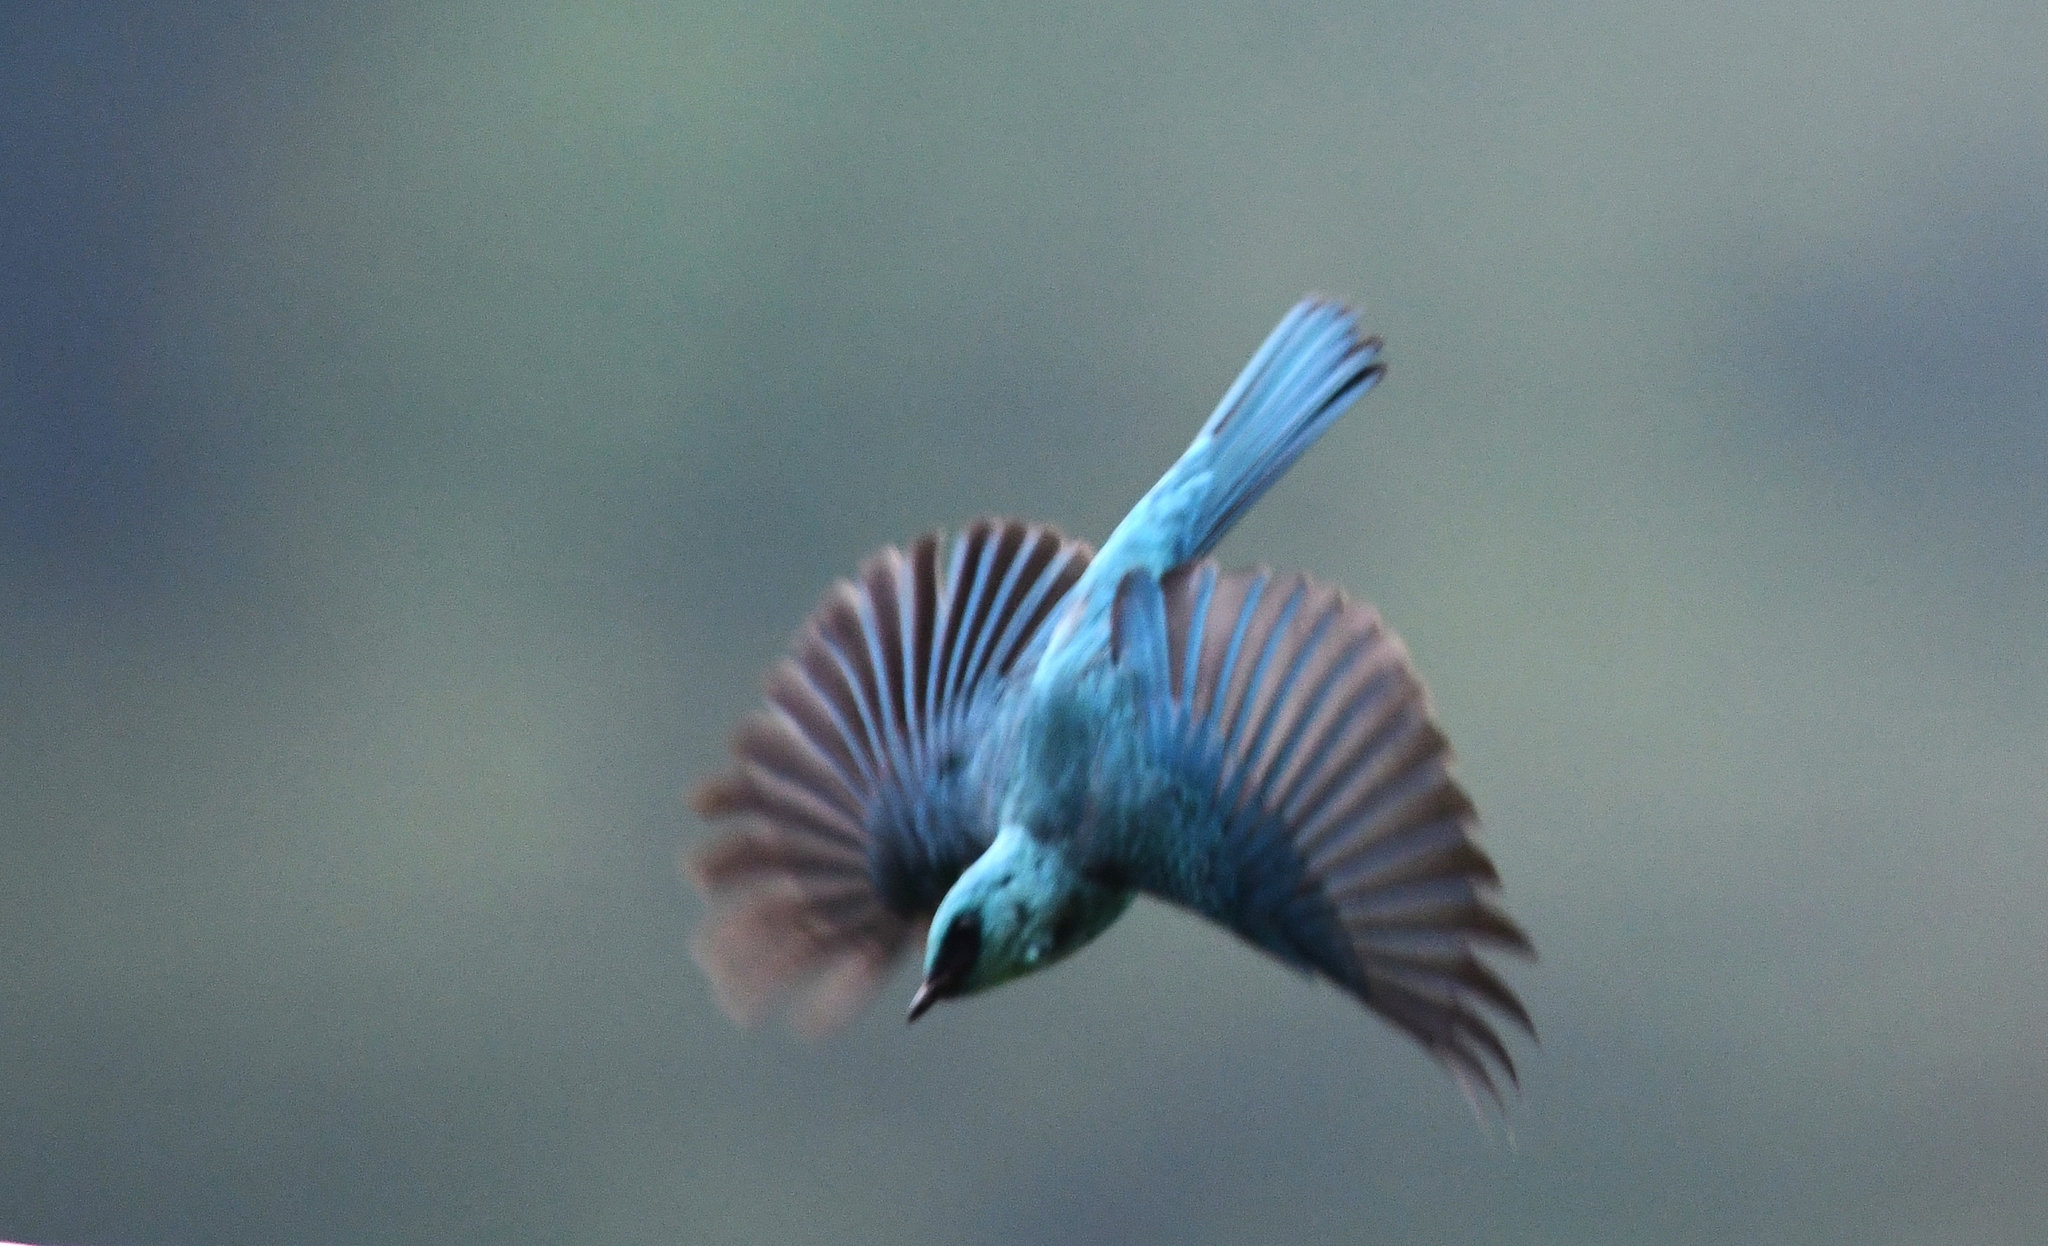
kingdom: Animalia
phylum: Chordata
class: Aves
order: Passeriformes
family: Muscicapidae
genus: Eumyias
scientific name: Eumyias thalassinus
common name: Verditer flycatcher
